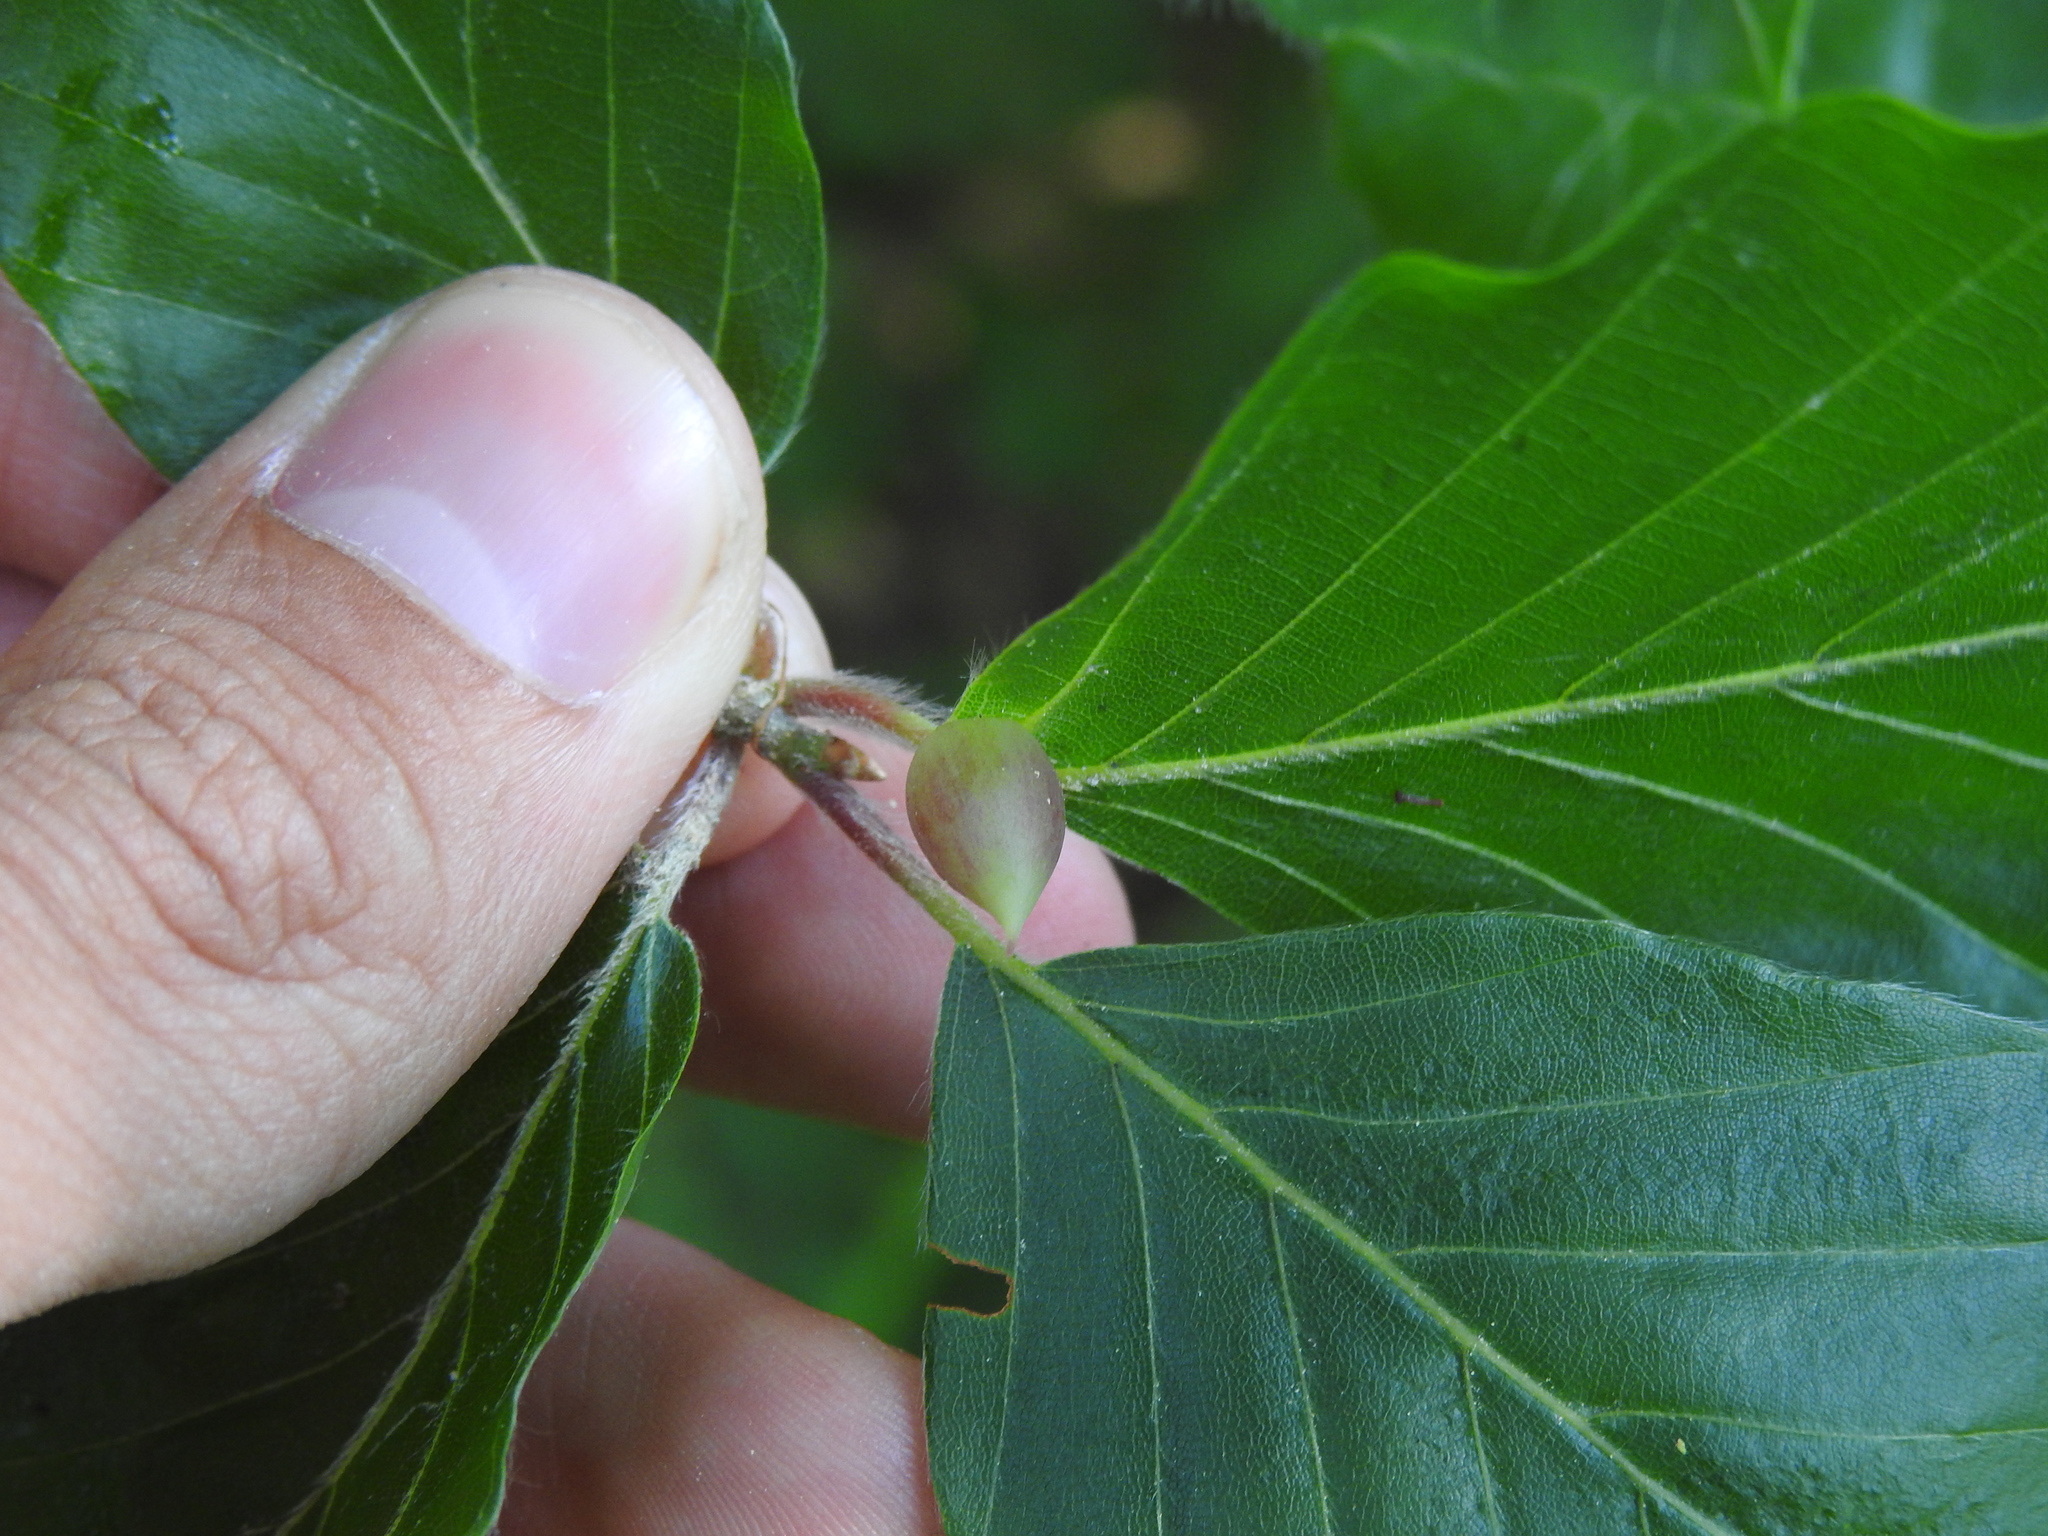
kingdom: Animalia
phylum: Arthropoda
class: Insecta
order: Diptera
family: Cecidomyiidae
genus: Mikiola
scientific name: Mikiola fagi
